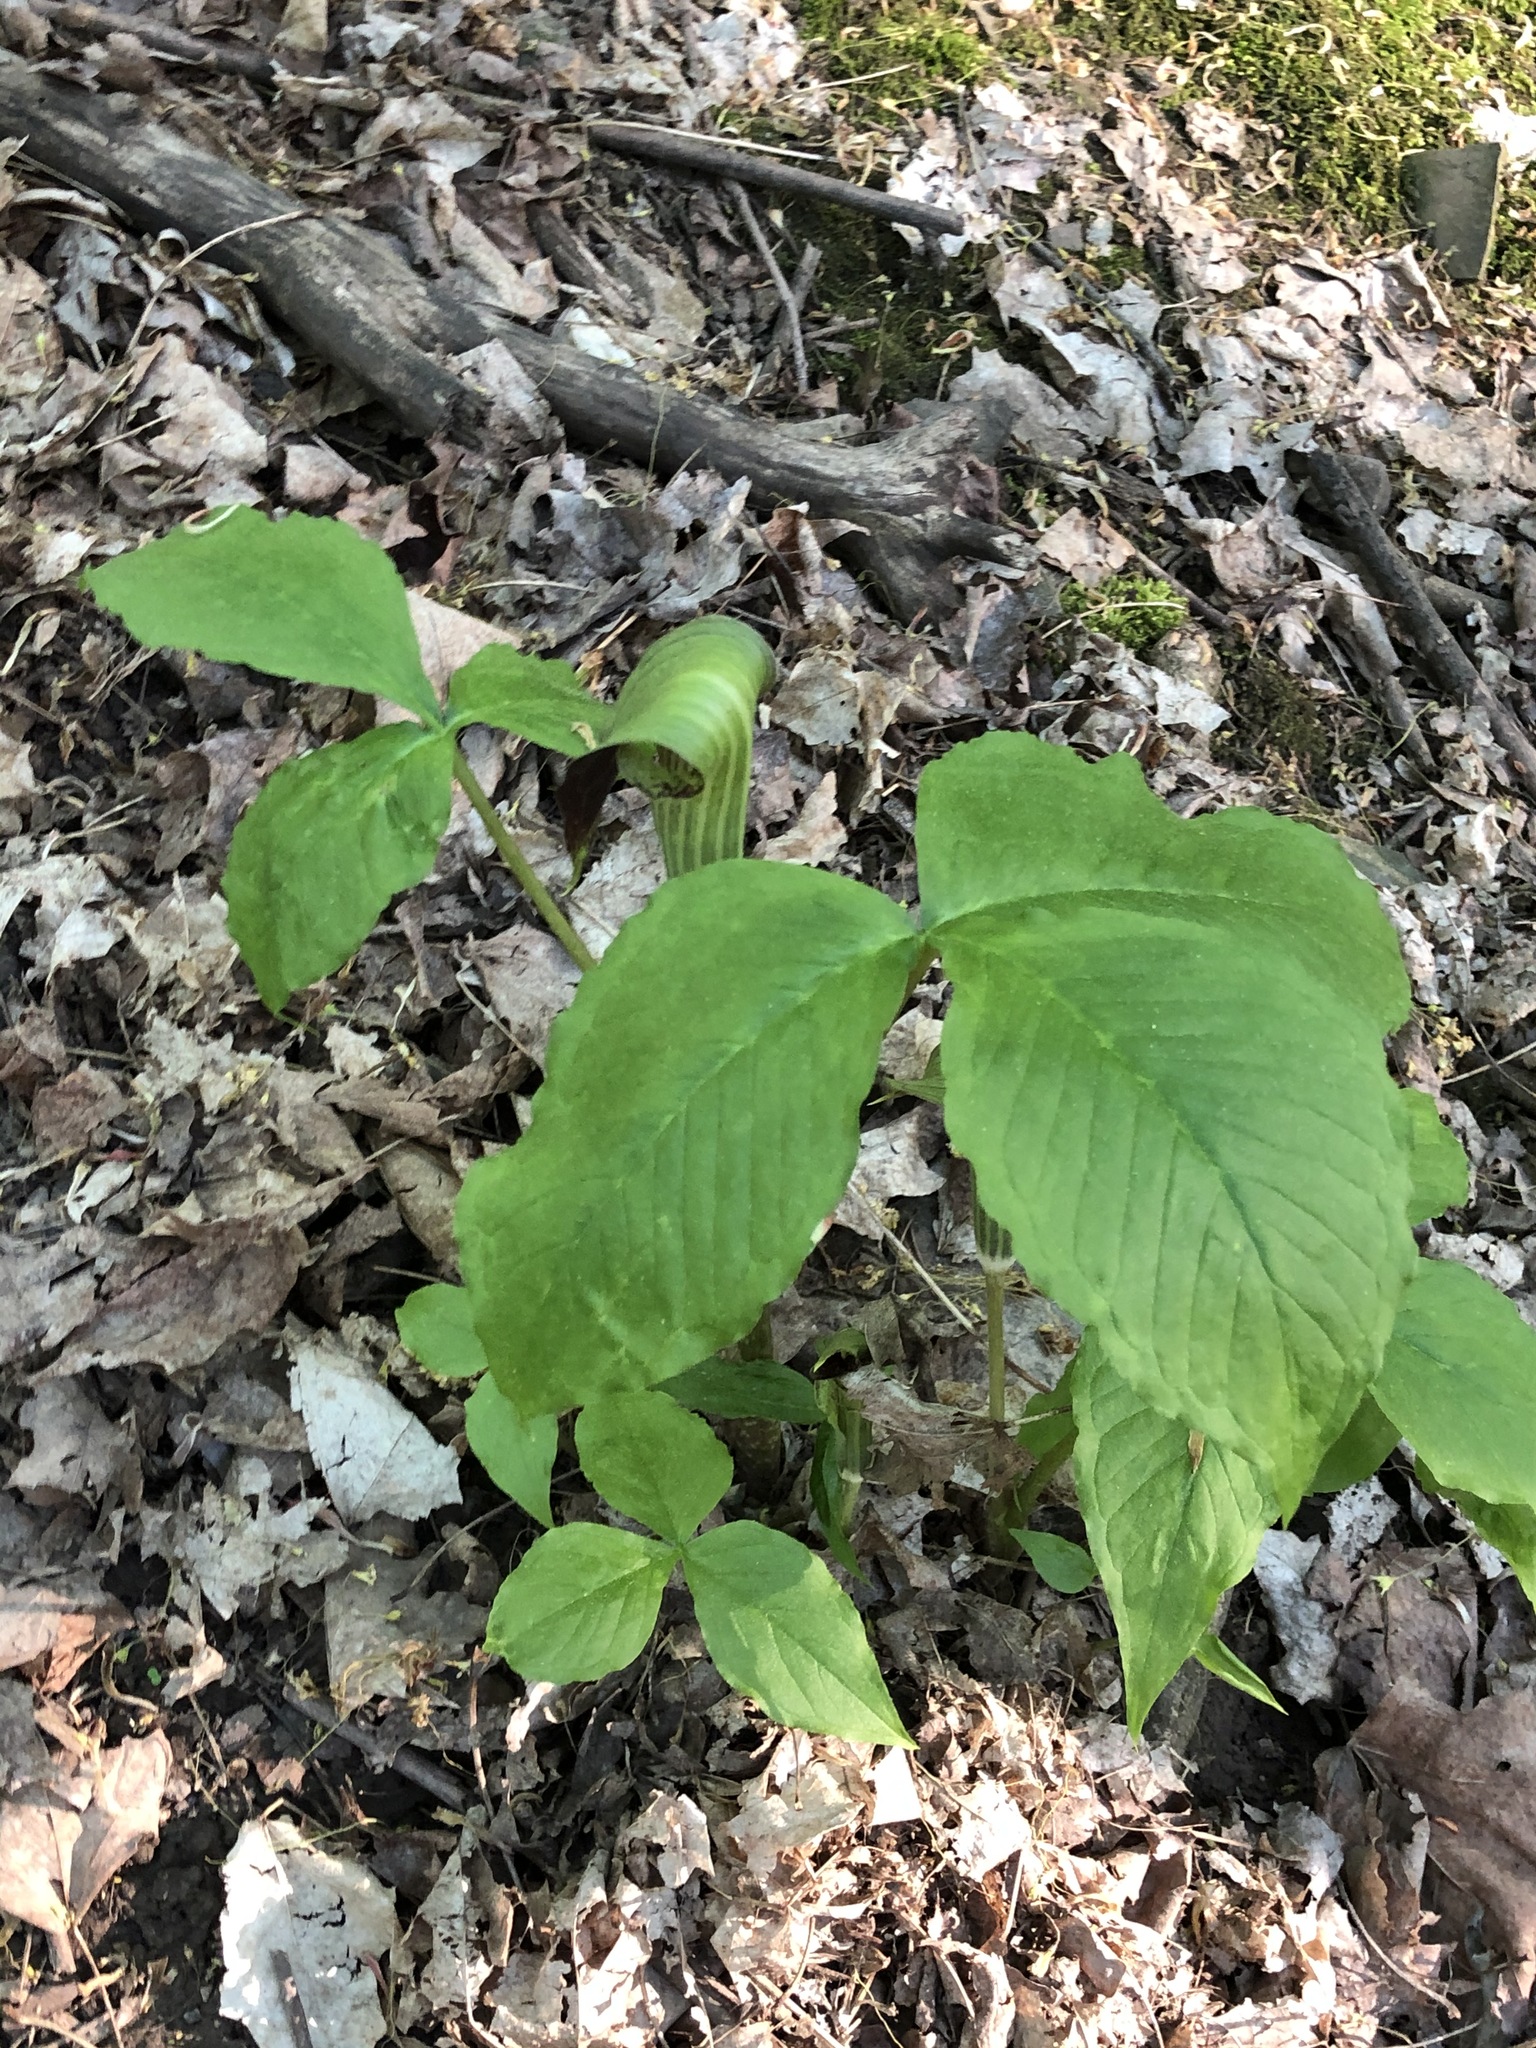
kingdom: Plantae
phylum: Tracheophyta
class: Liliopsida
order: Alismatales
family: Araceae
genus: Arisaema
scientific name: Arisaema triphyllum
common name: Jack-in-the-pulpit
